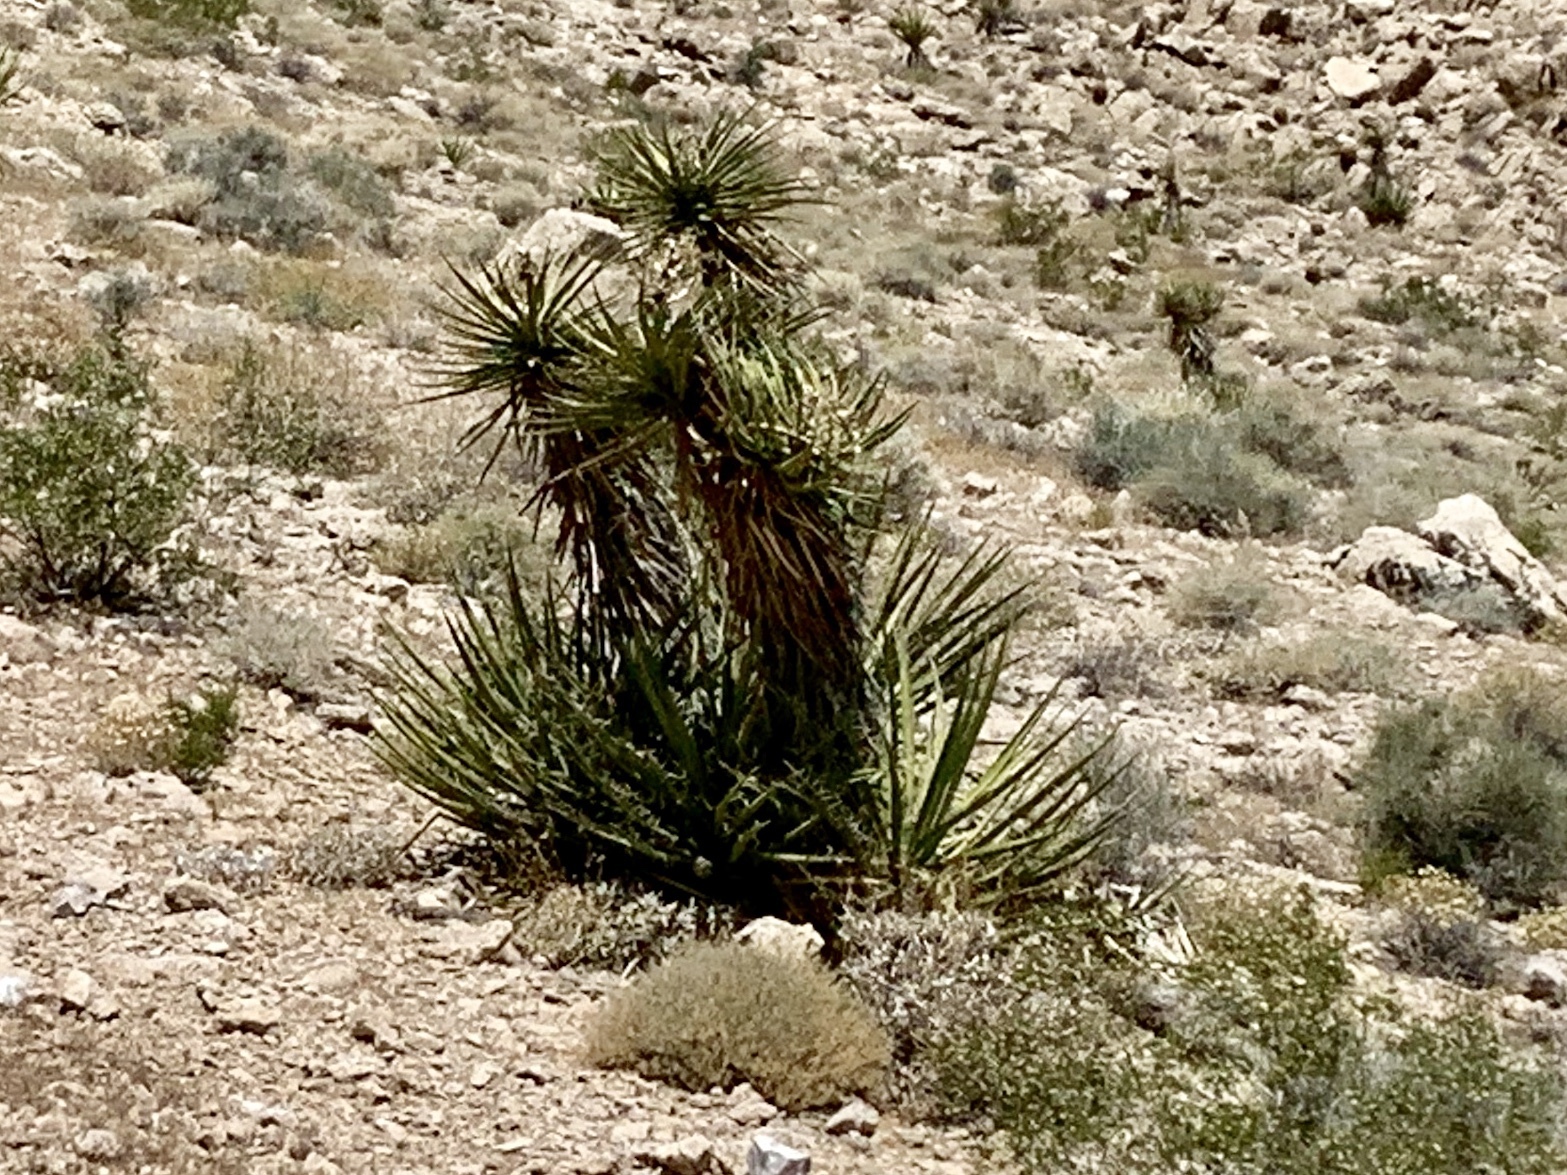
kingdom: Plantae
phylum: Tracheophyta
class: Liliopsida
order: Asparagales
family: Asparagaceae
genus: Yucca
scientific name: Yucca schidigera
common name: Mojave yucca
